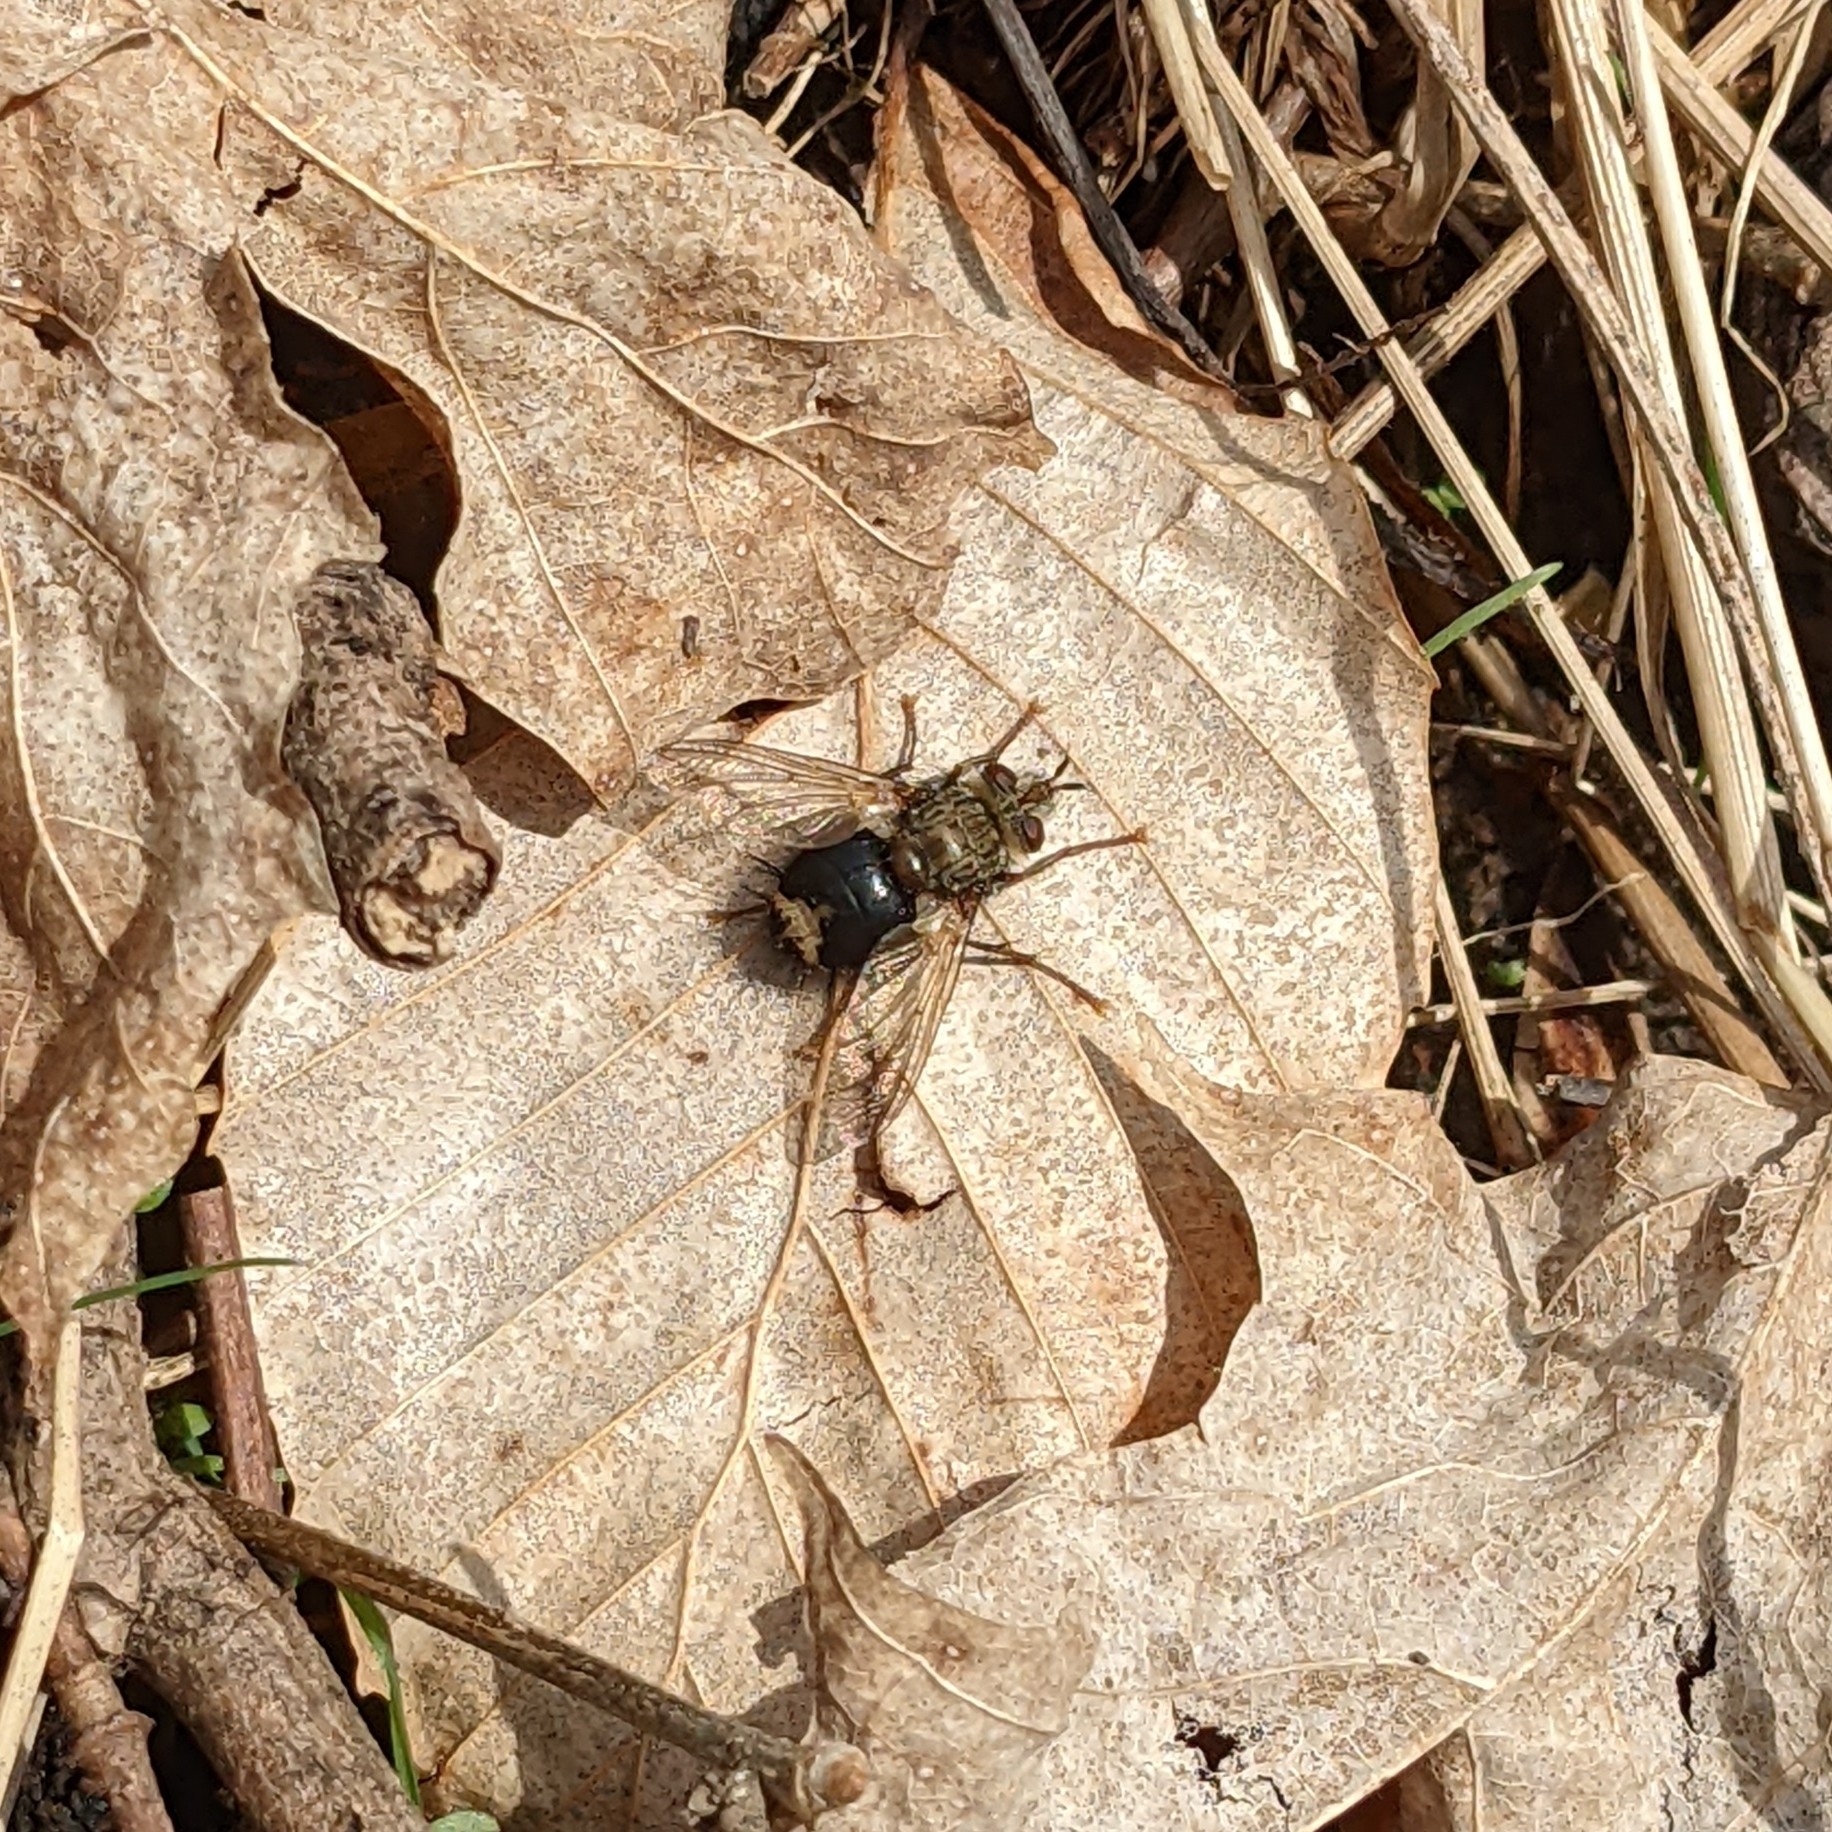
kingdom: Animalia
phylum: Arthropoda
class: Insecta
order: Diptera
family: Tachinidae
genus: Epalpus
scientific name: Epalpus signifer
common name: Early tachinid fly
